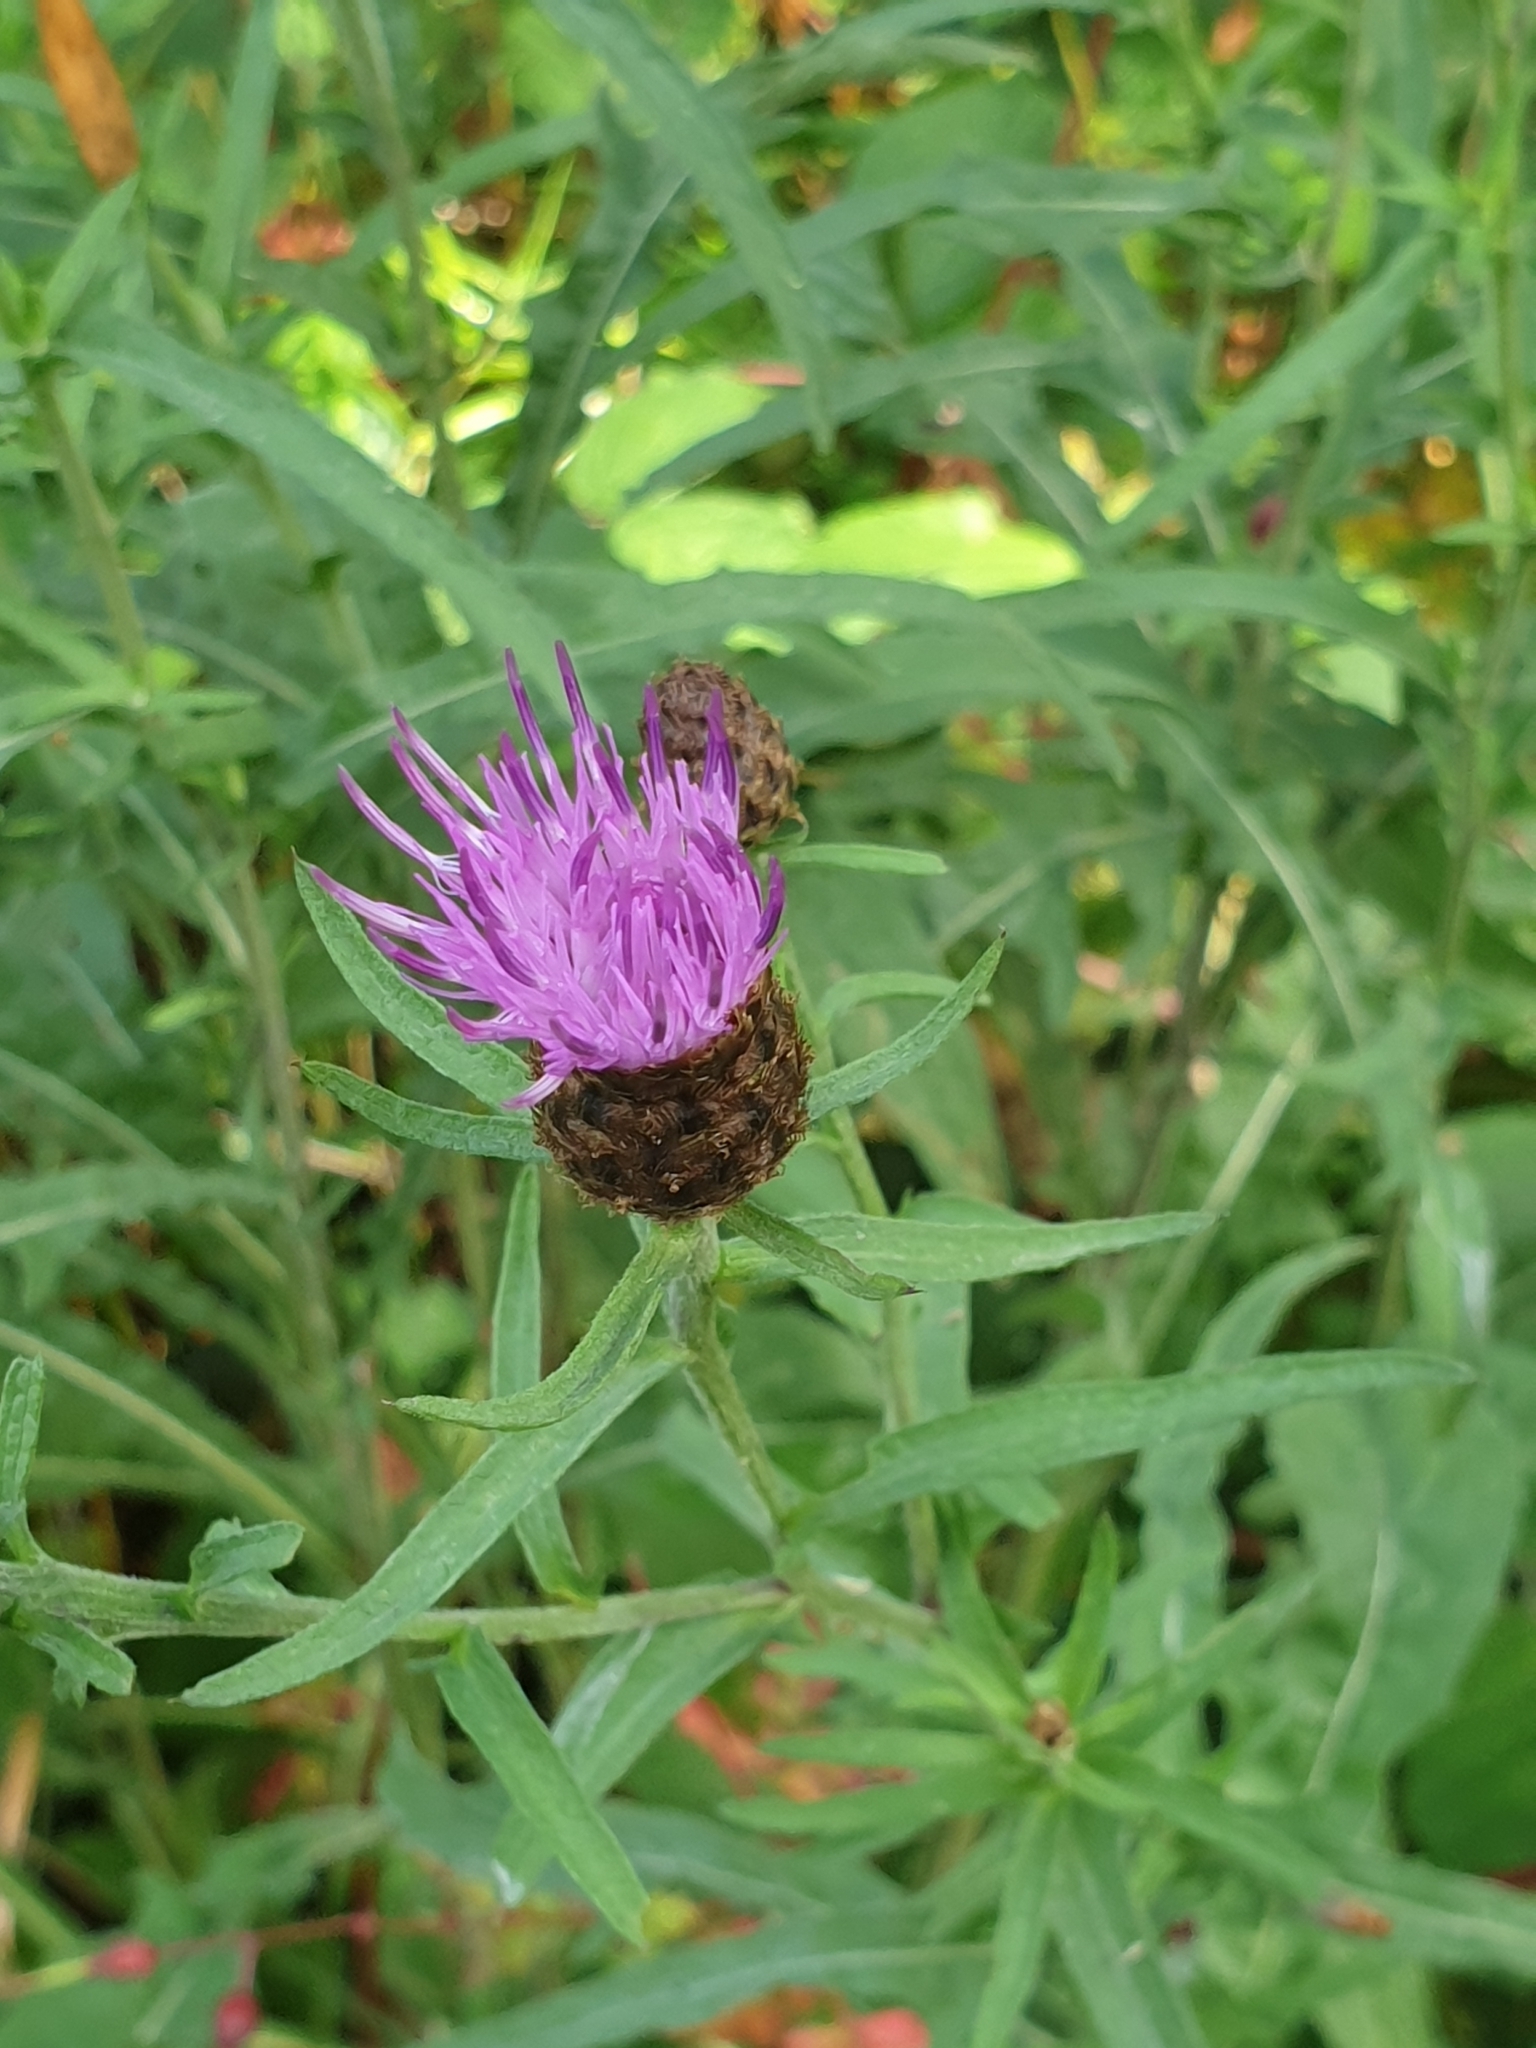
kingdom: Plantae
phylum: Tracheophyta
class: Magnoliopsida
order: Asterales
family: Asteraceae
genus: Centaurea
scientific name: Centaurea nigra
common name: Lesser knapweed
